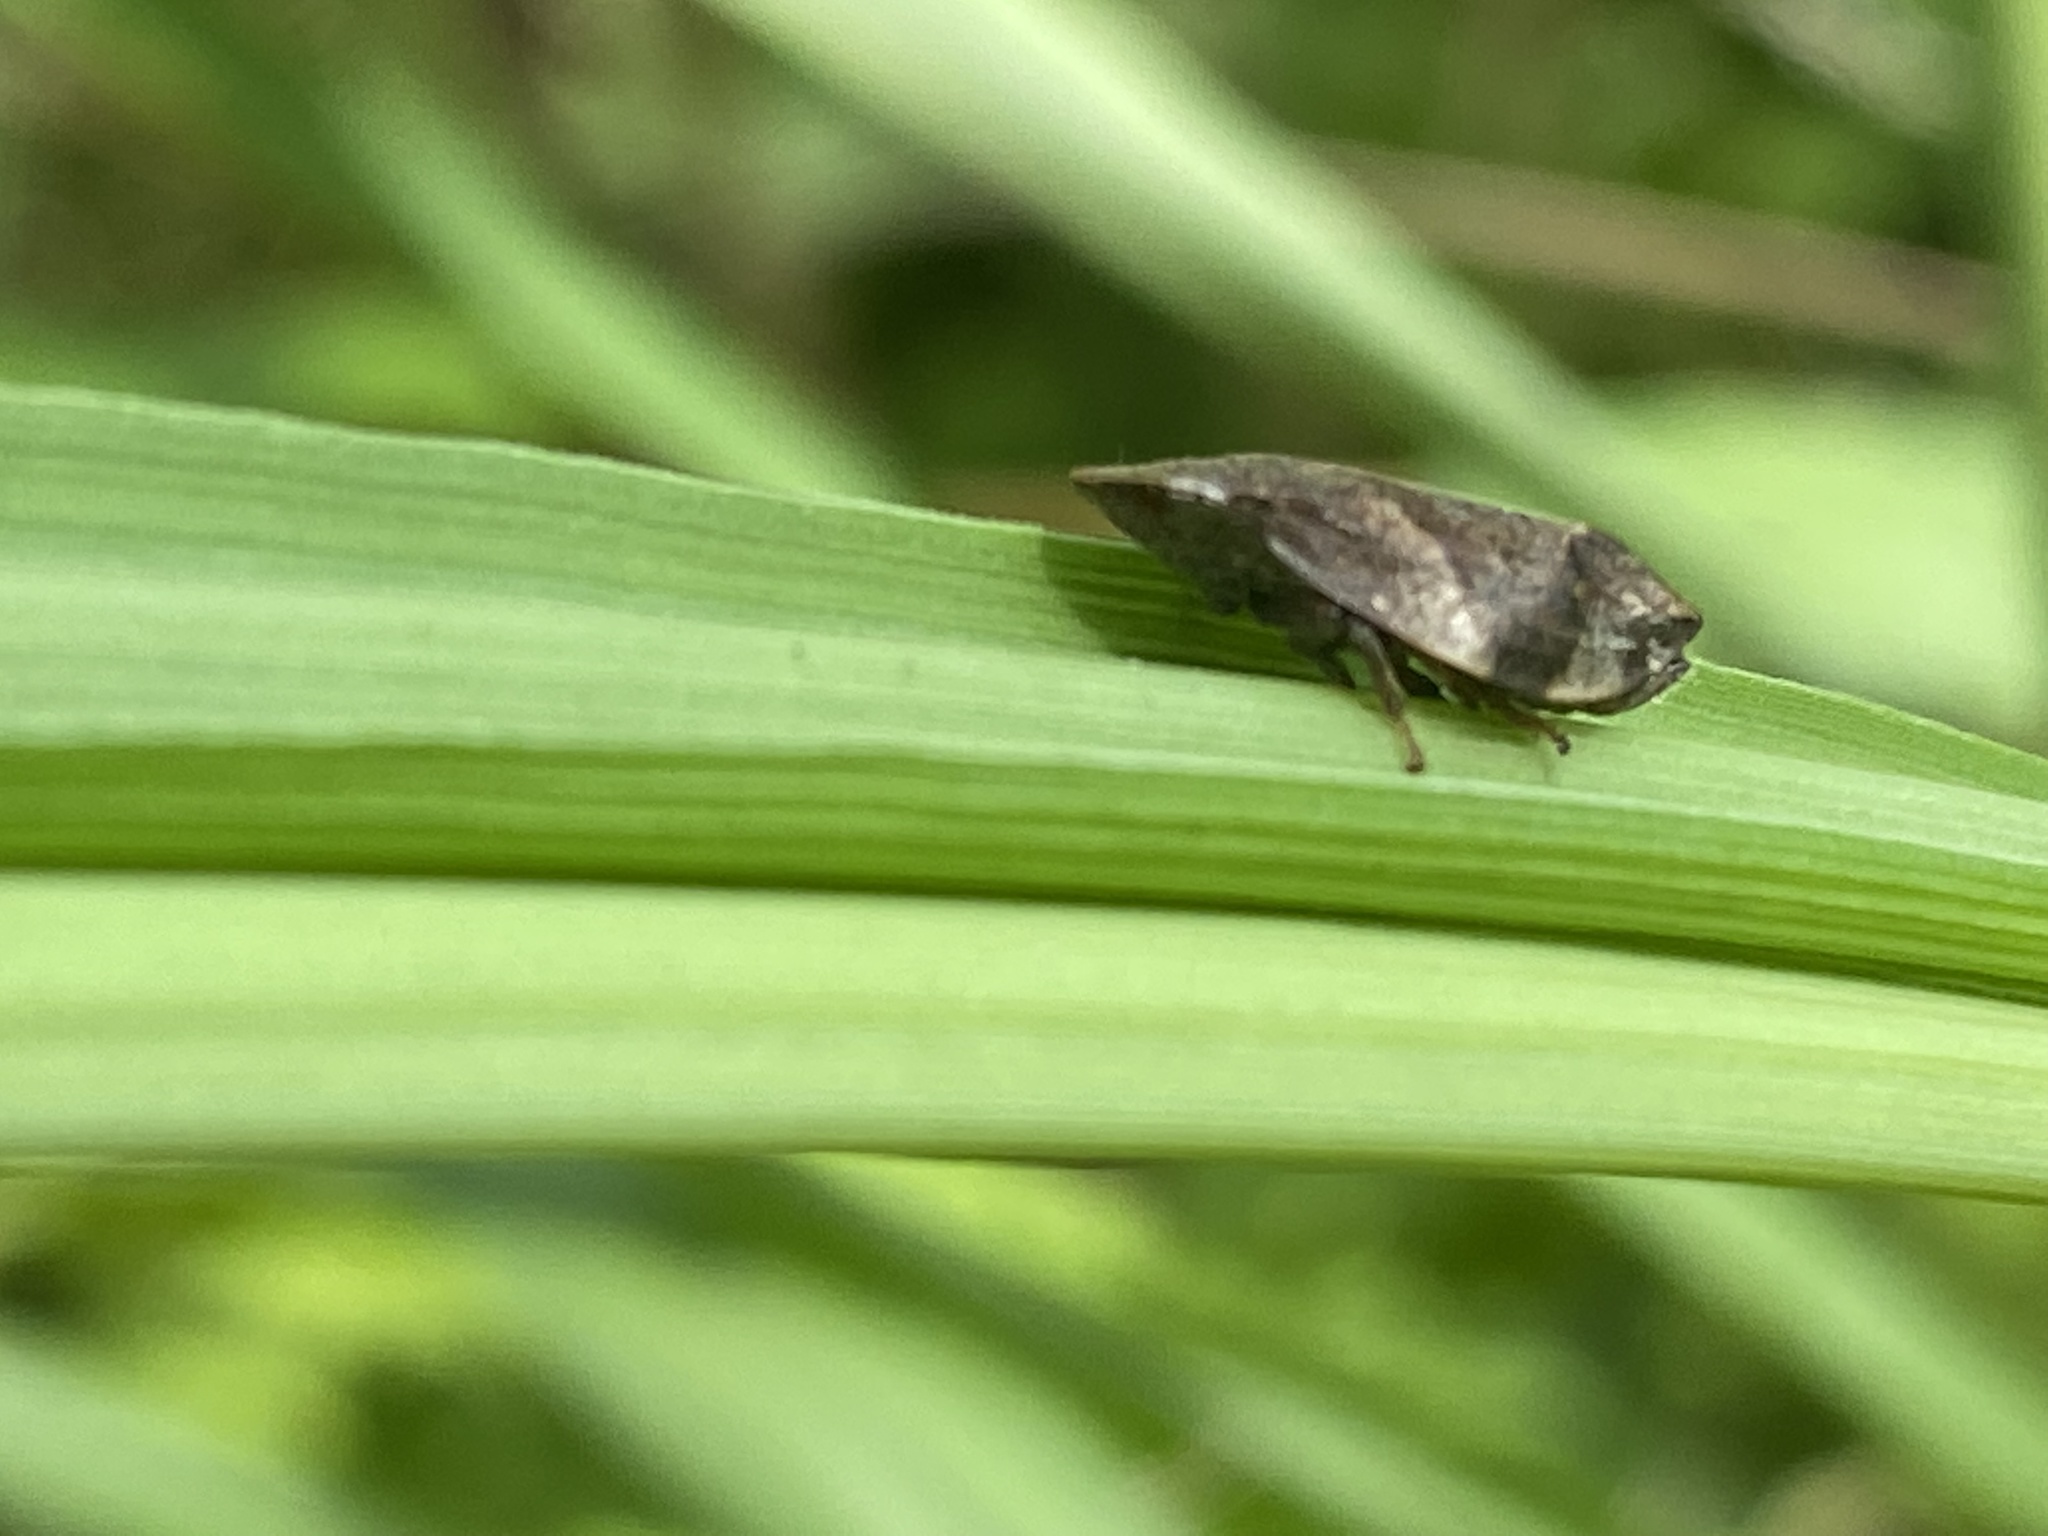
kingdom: Animalia
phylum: Arthropoda
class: Insecta
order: Hemiptera
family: Aphrophoridae
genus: Lepyronia
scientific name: Lepyronia quadrangularis
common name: Diamond-backed spittlebug
